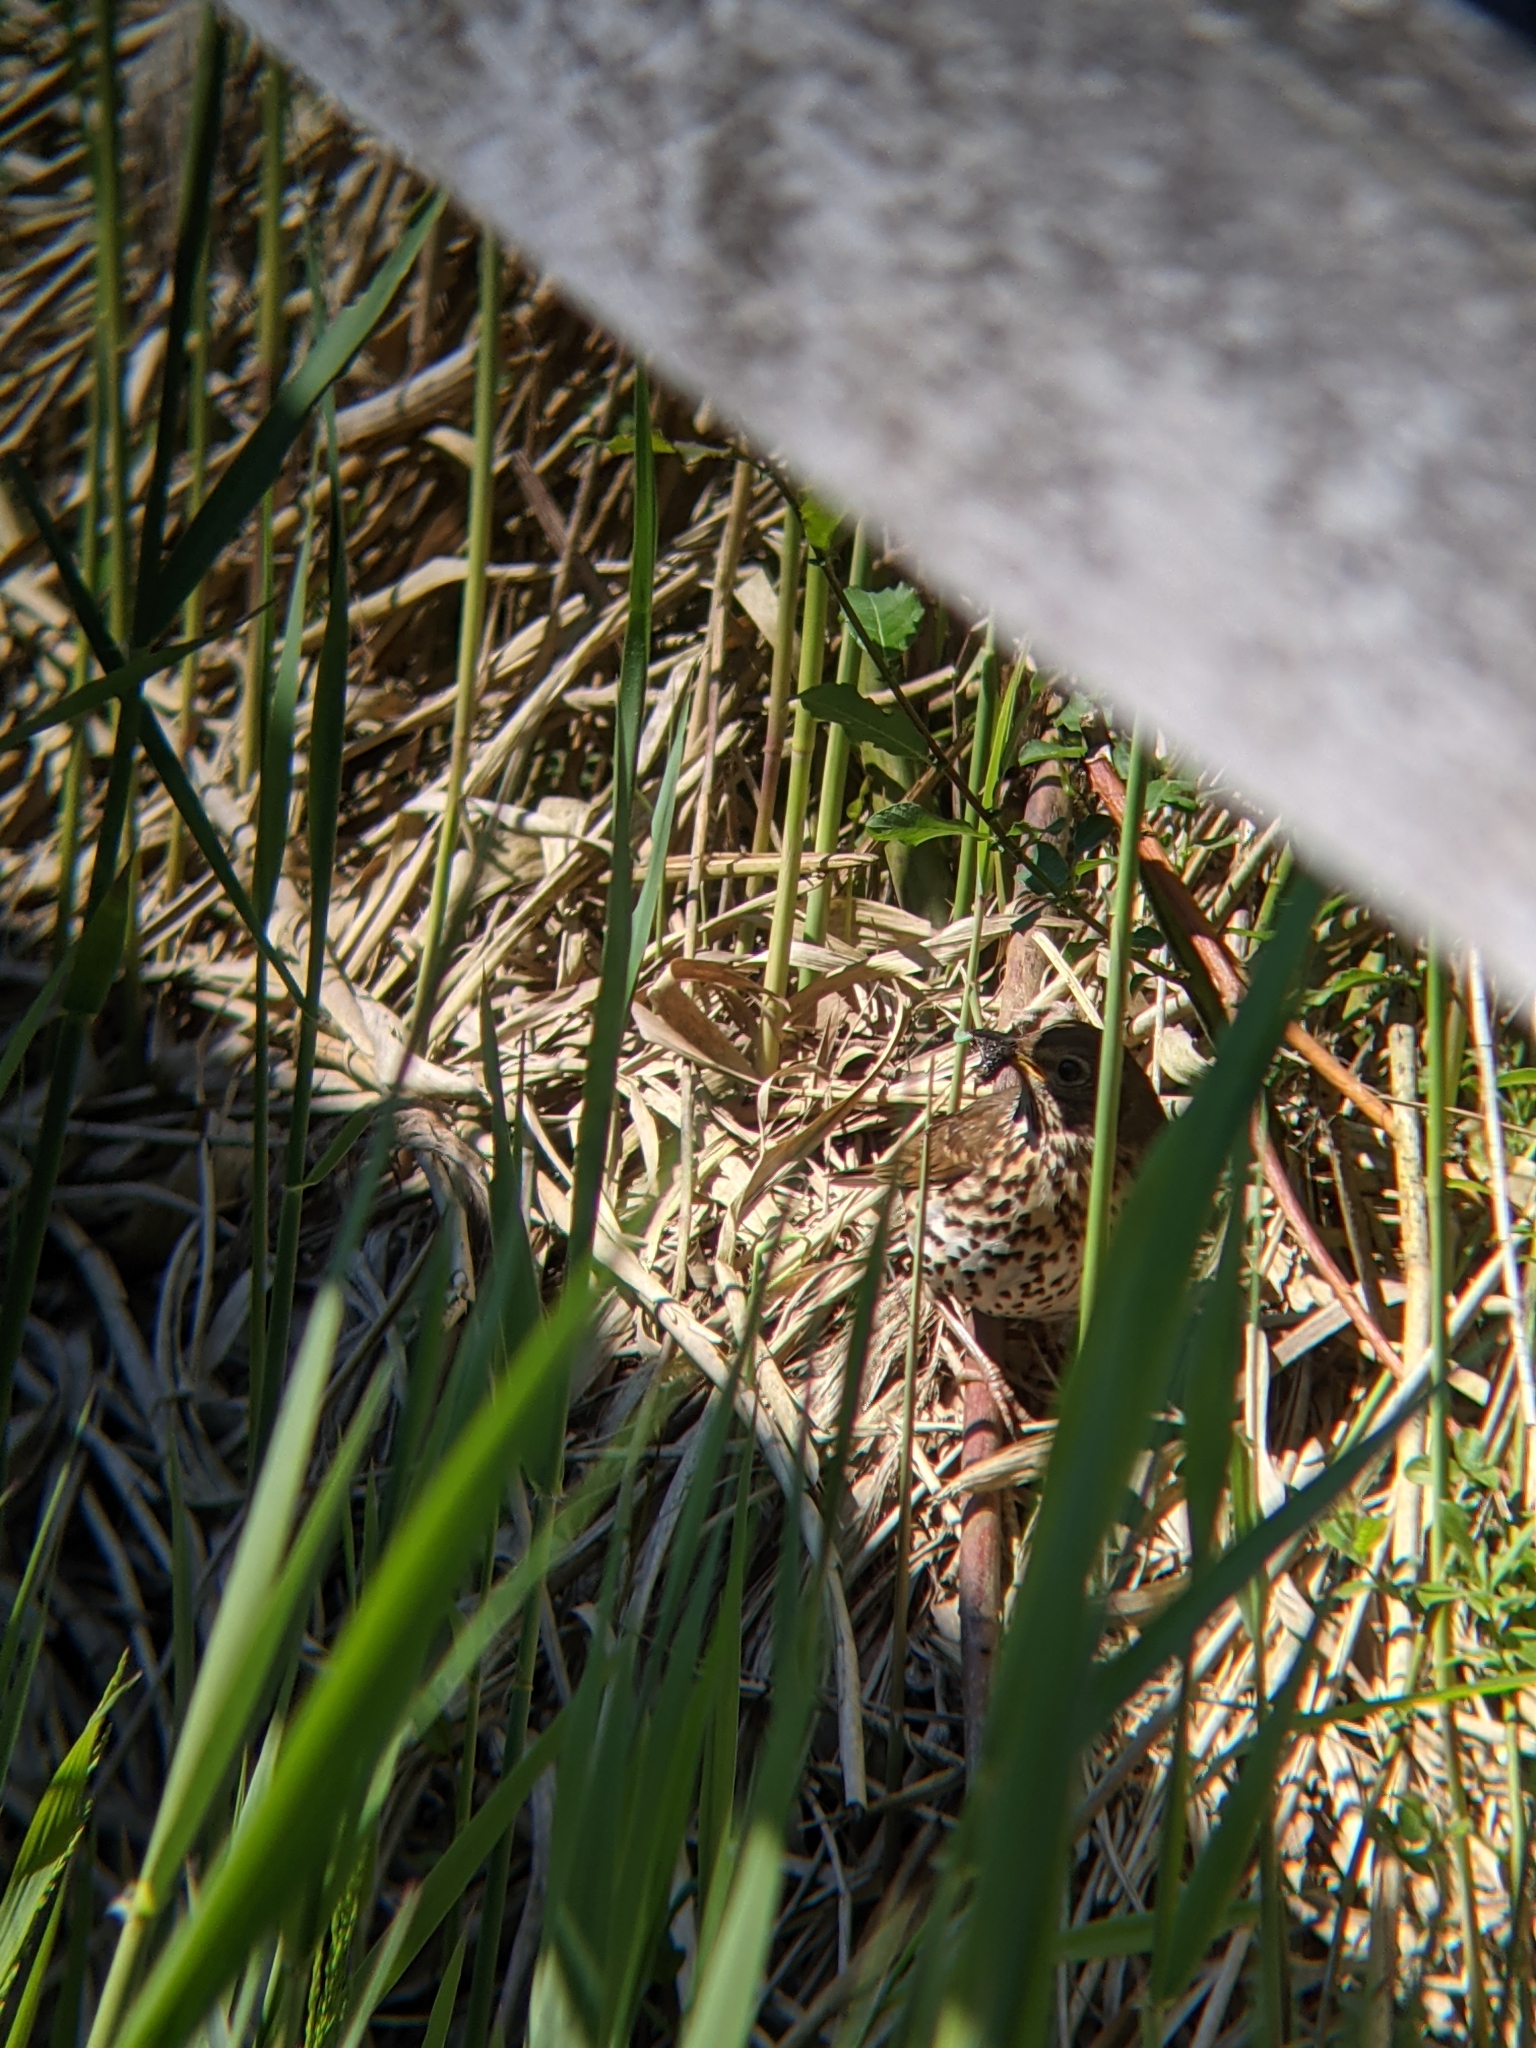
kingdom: Animalia
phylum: Chordata
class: Aves
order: Passeriformes
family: Turdidae
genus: Turdus
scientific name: Turdus philomelos
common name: Song thrush
